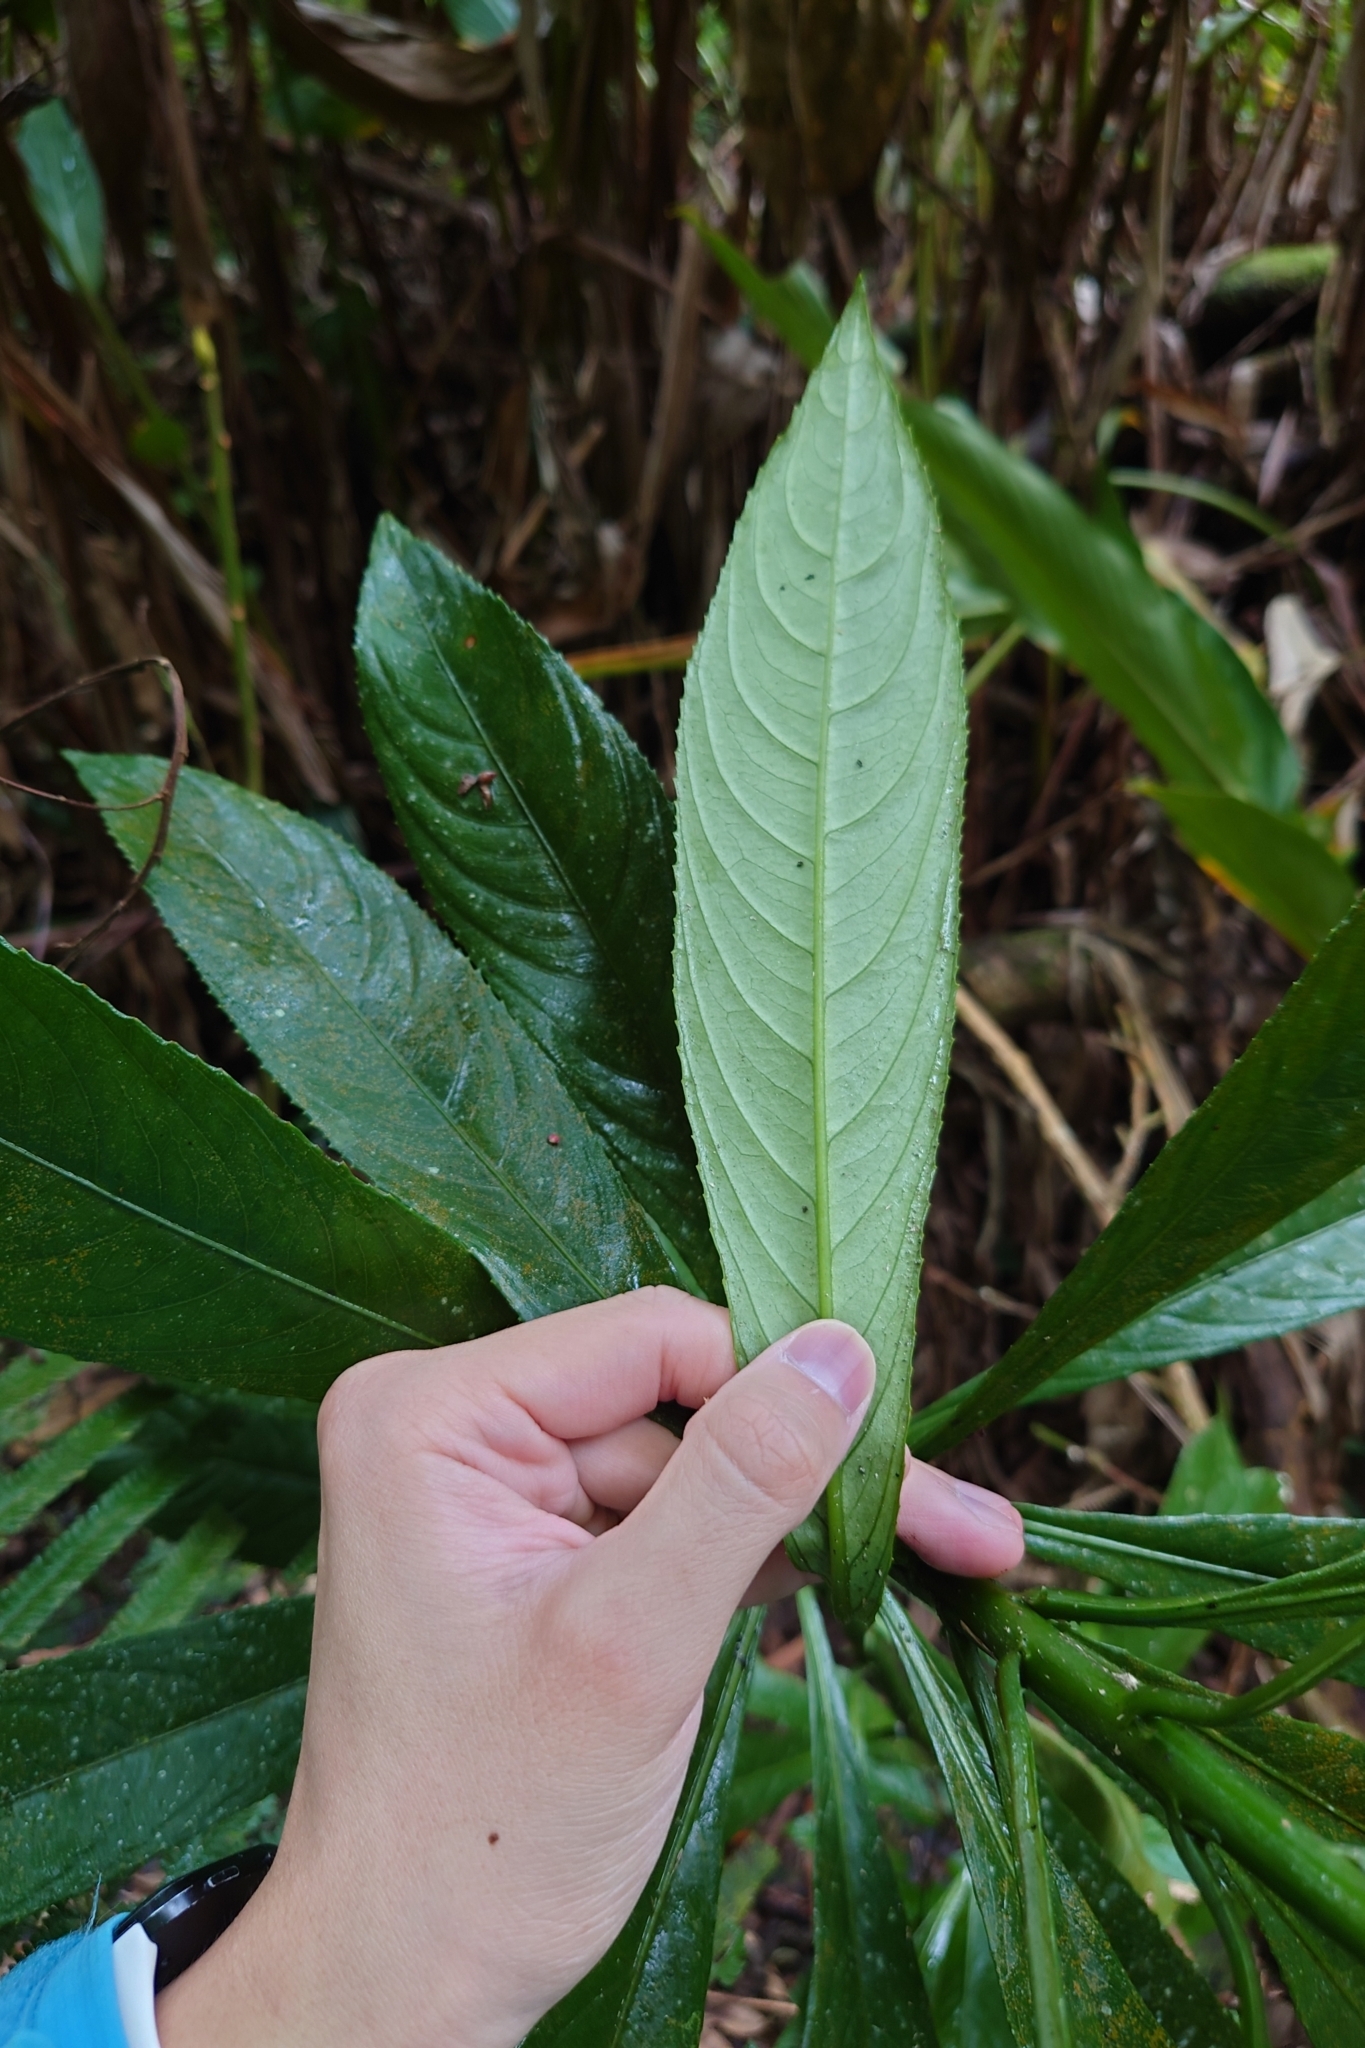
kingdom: Plantae
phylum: Tracheophyta
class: Magnoliopsida
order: Asterales
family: Asteraceae
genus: Blumea
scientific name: Blumea linearis
